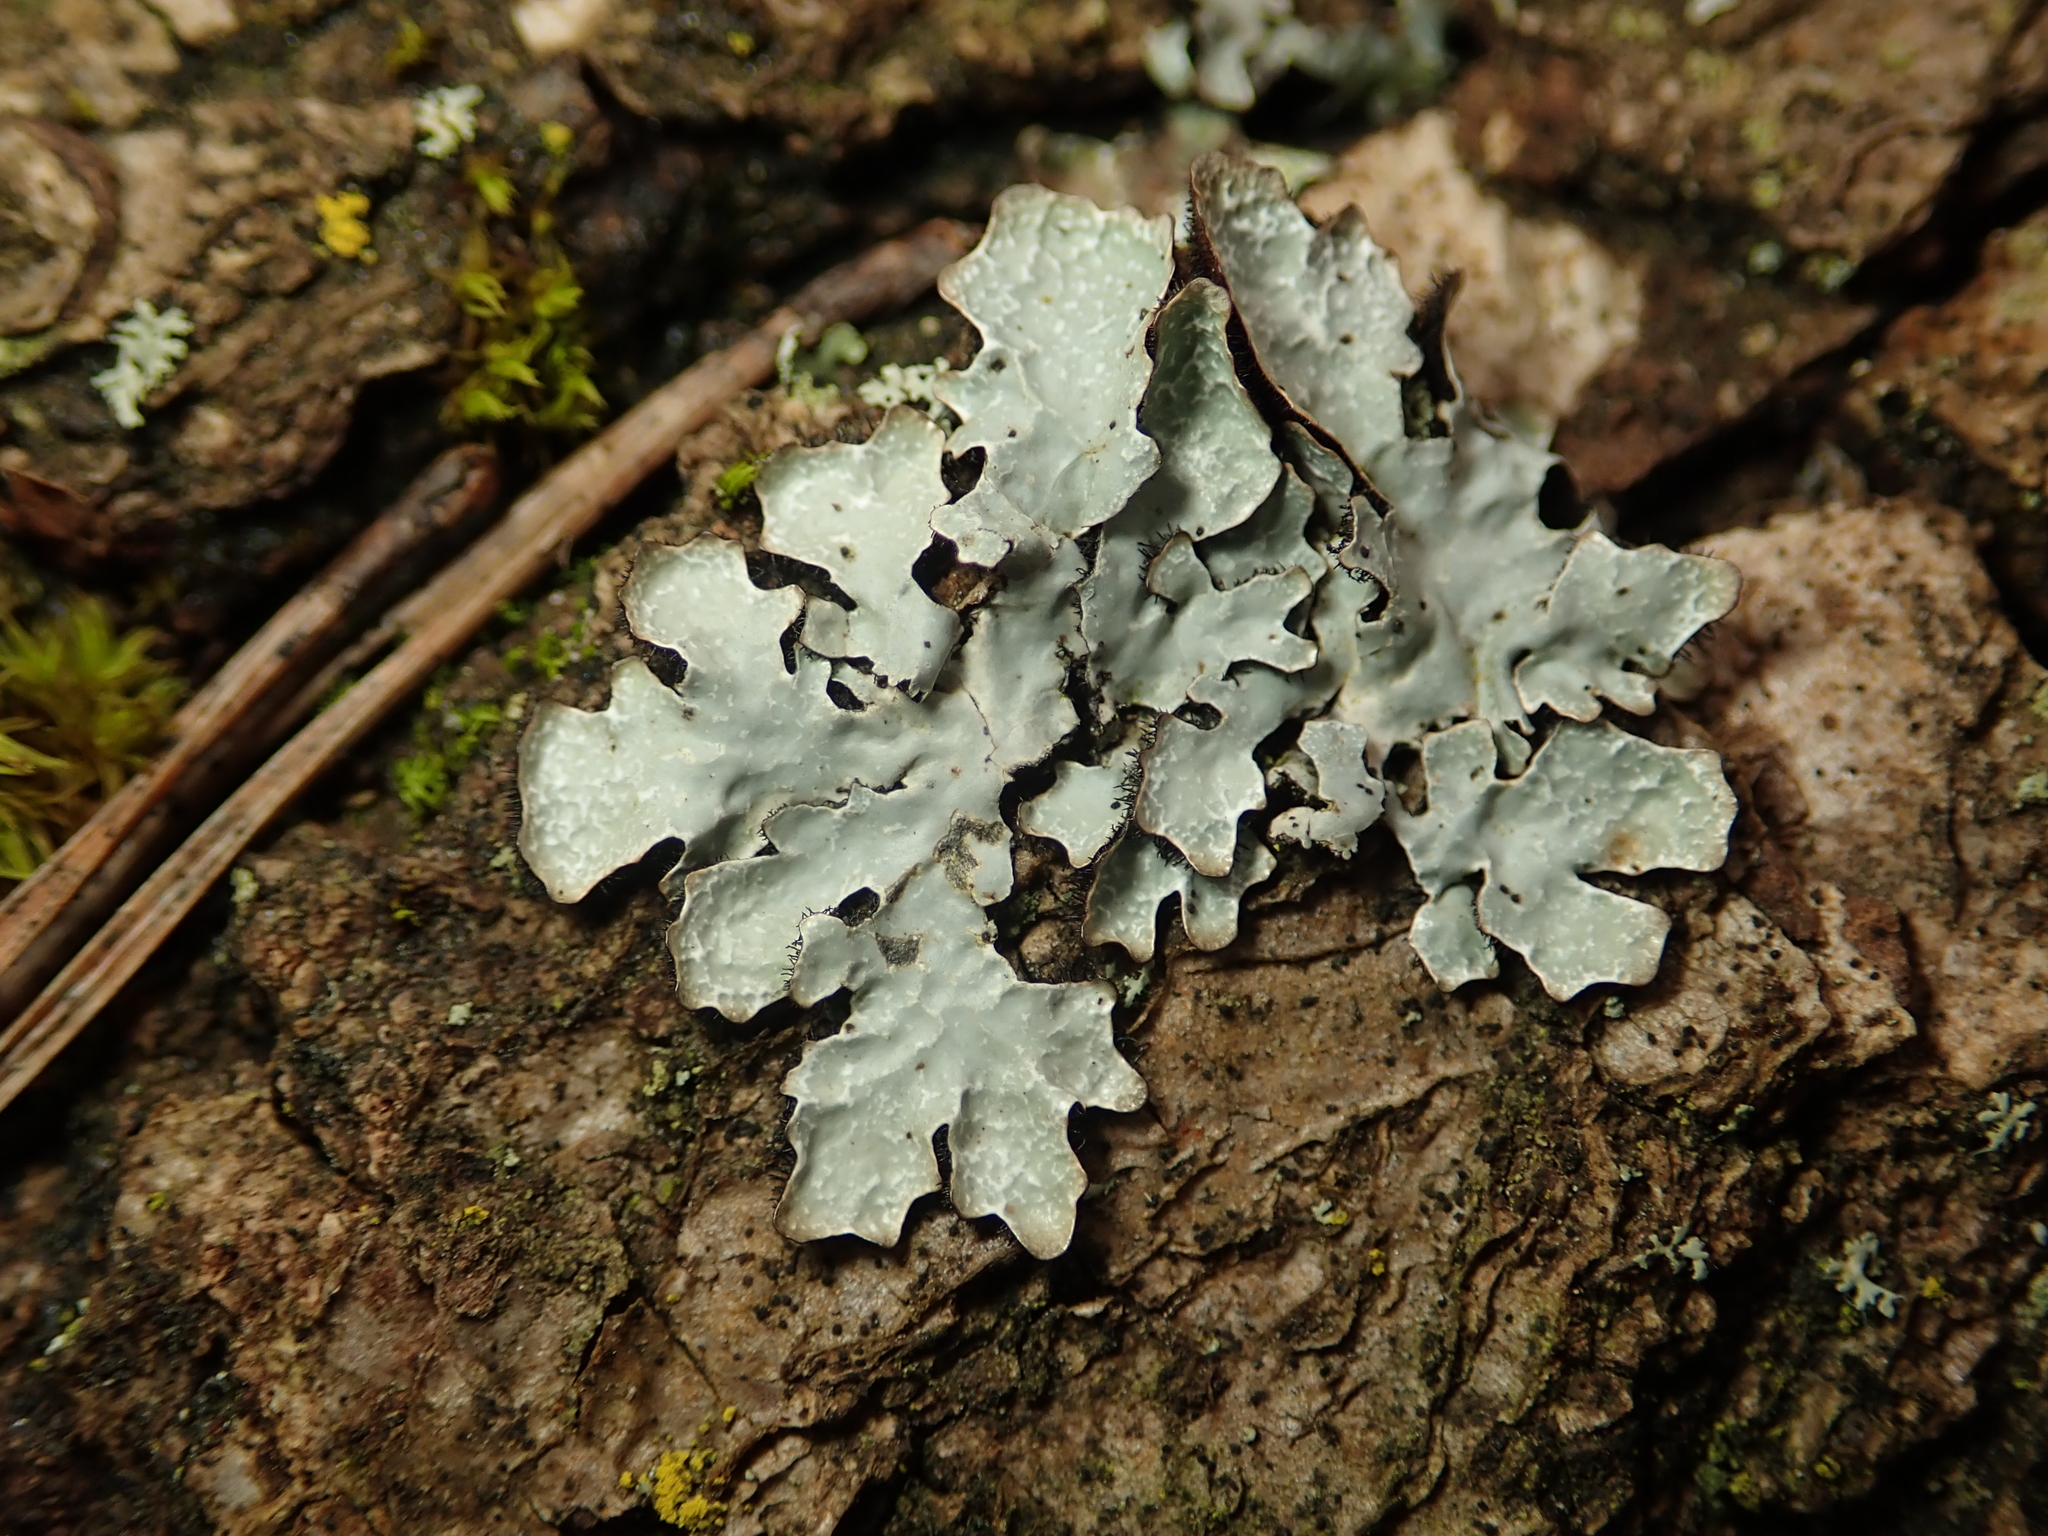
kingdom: Fungi
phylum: Ascomycota
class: Lecanoromycetes
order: Lecanorales
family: Parmeliaceae
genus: Parmelia
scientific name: Parmelia sulcata
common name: Netted shield lichen
